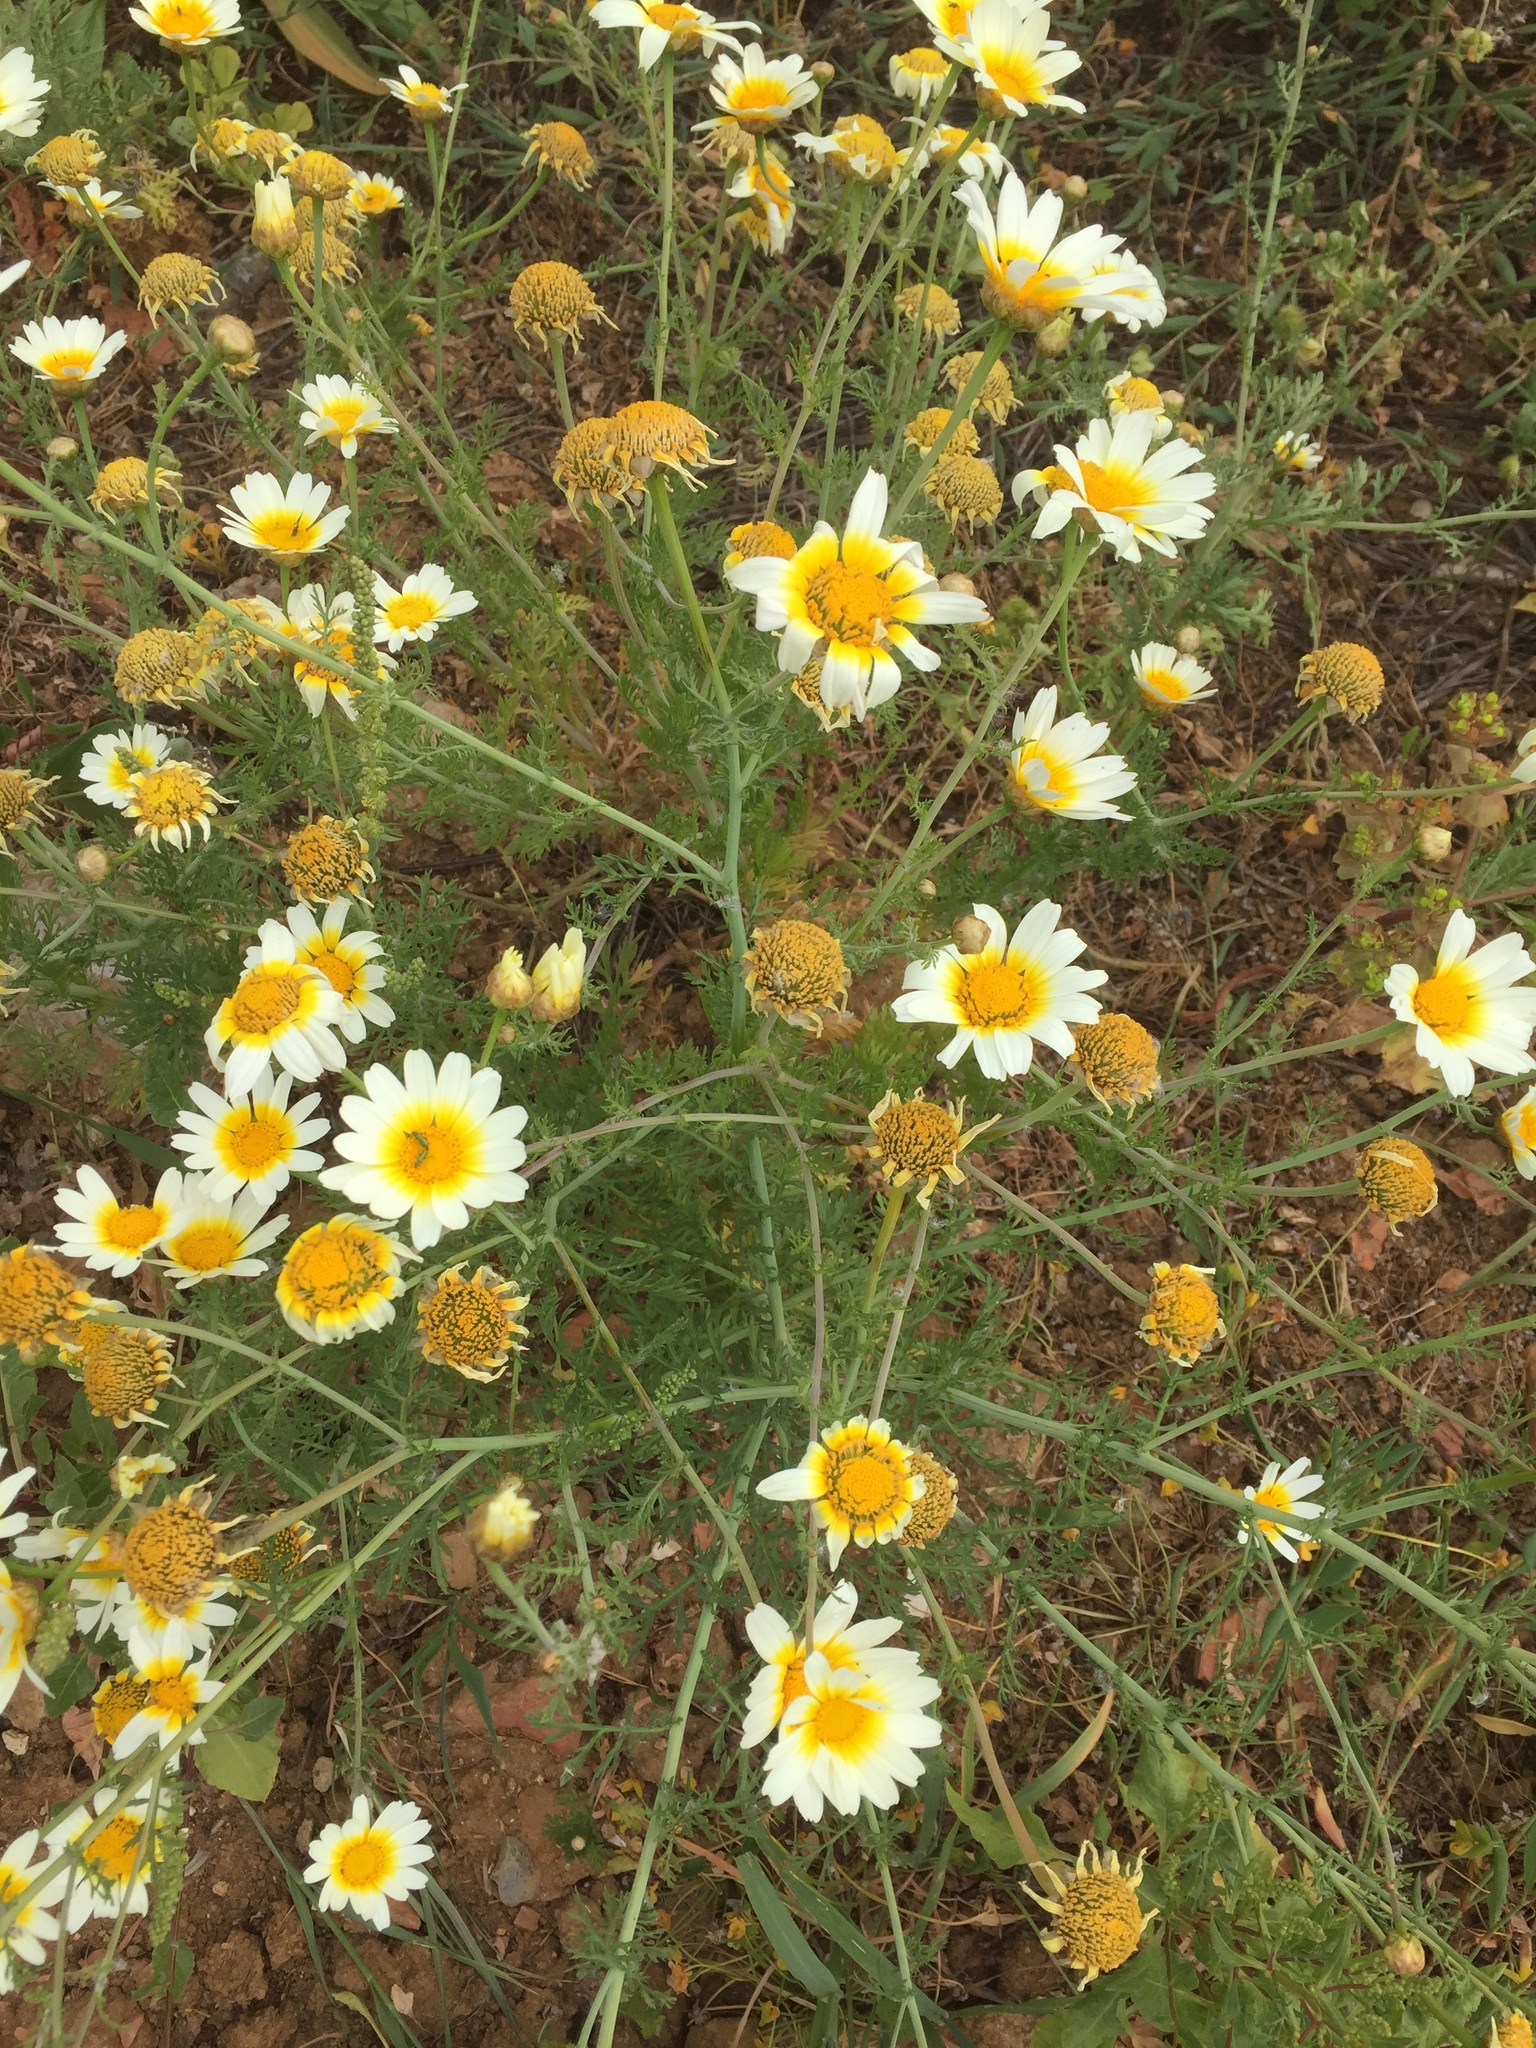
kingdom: Plantae
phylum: Tracheophyta
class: Magnoliopsida
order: Asterales
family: Asteraceae
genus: Glebionis
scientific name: Glebionis coronaria
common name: Crowndaisy
